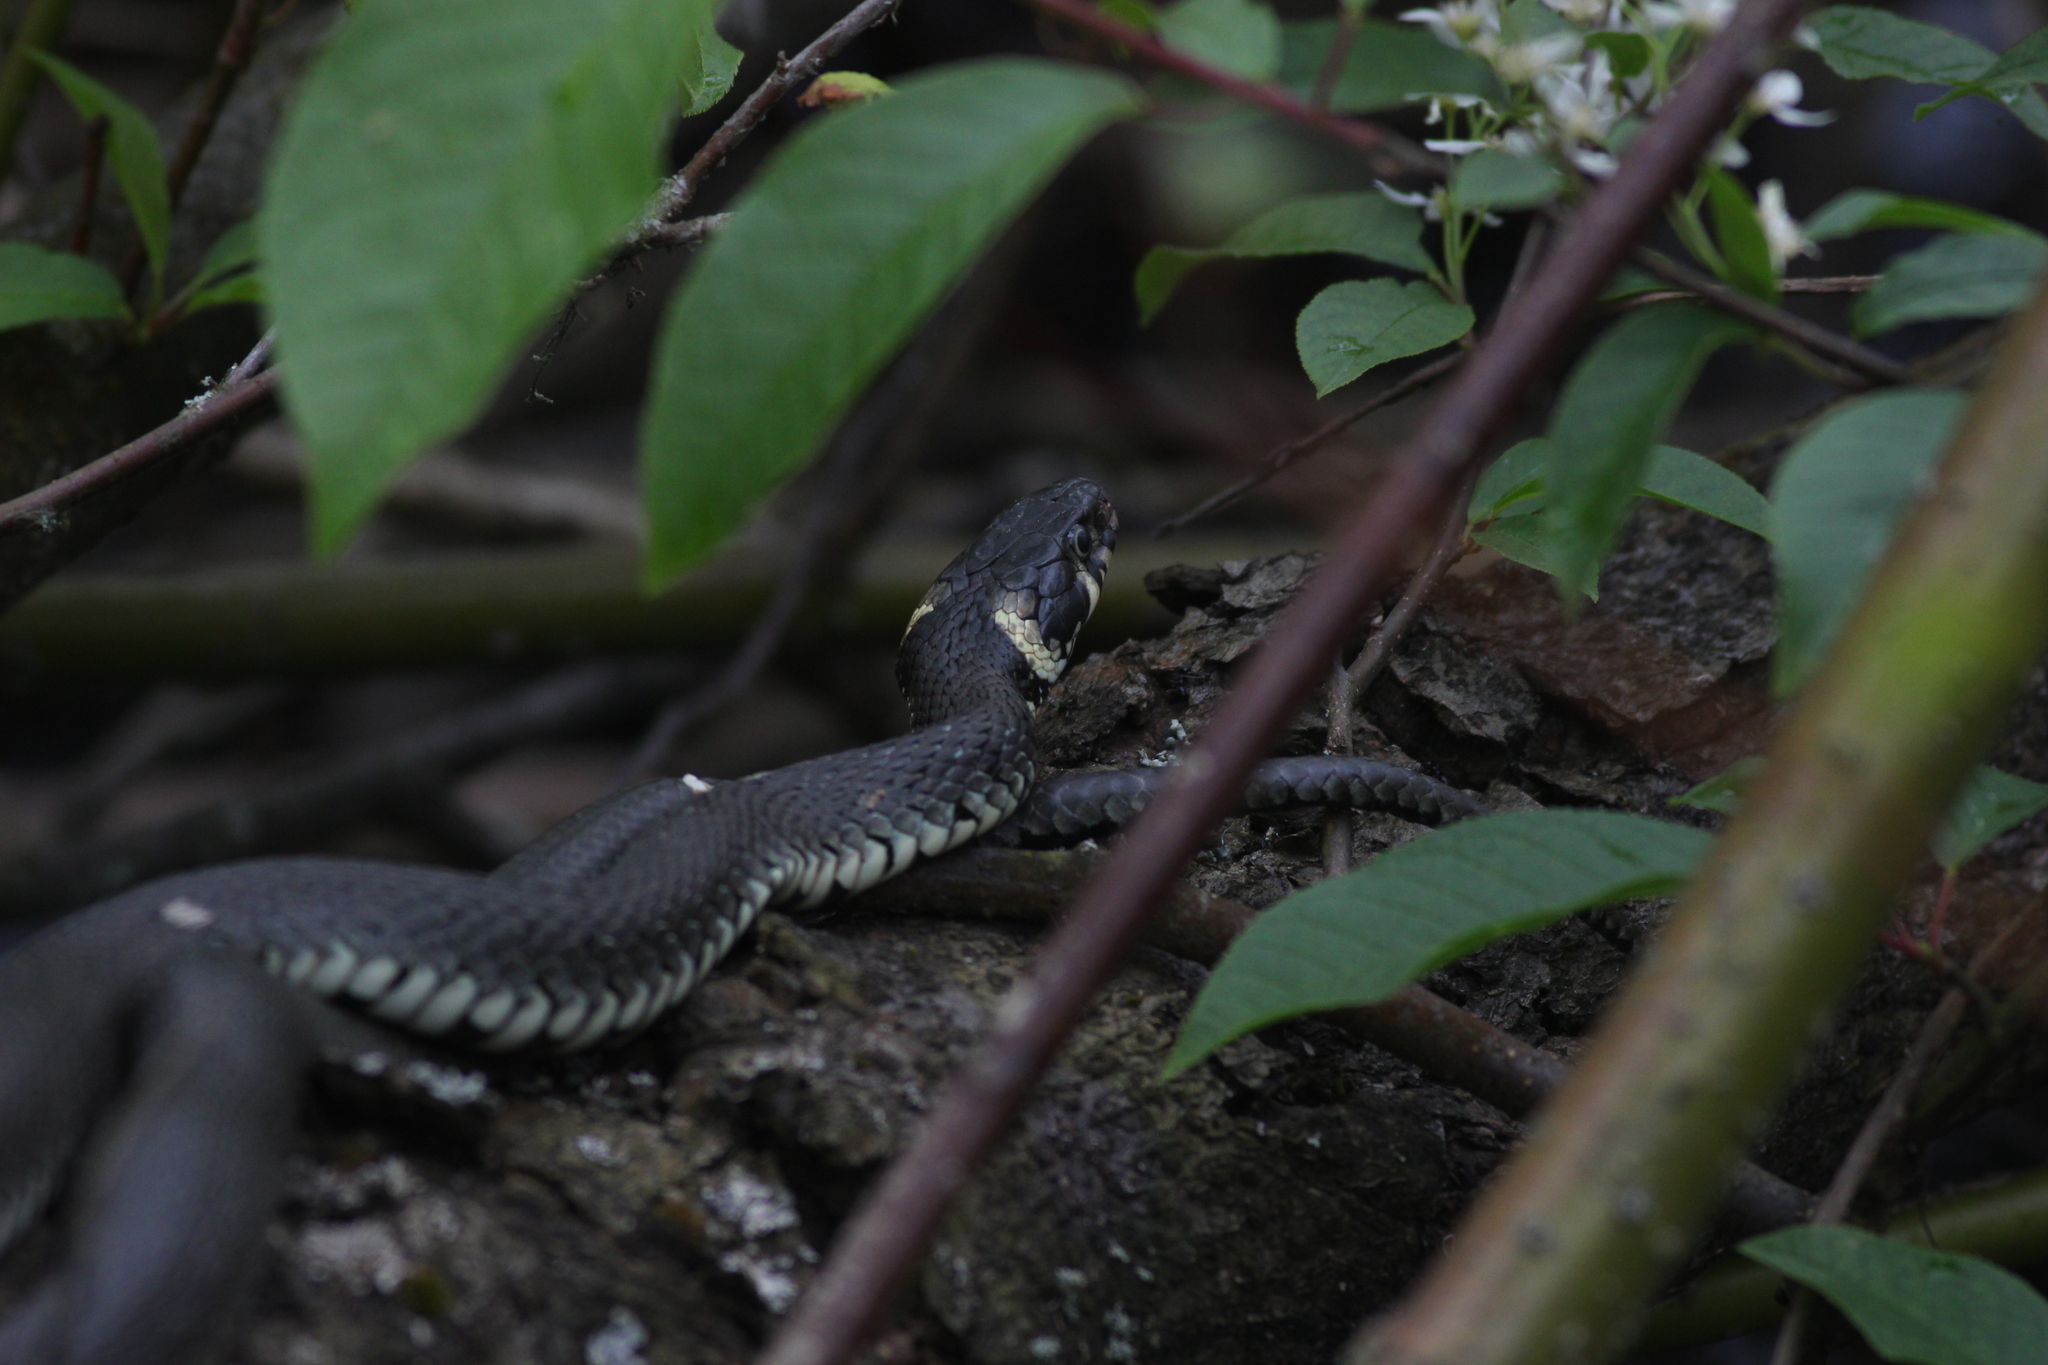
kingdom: Animalia
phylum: Chordata
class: Squamata
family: Colubridae
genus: Natrix
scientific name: Natrix natrix
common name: Grass snake
